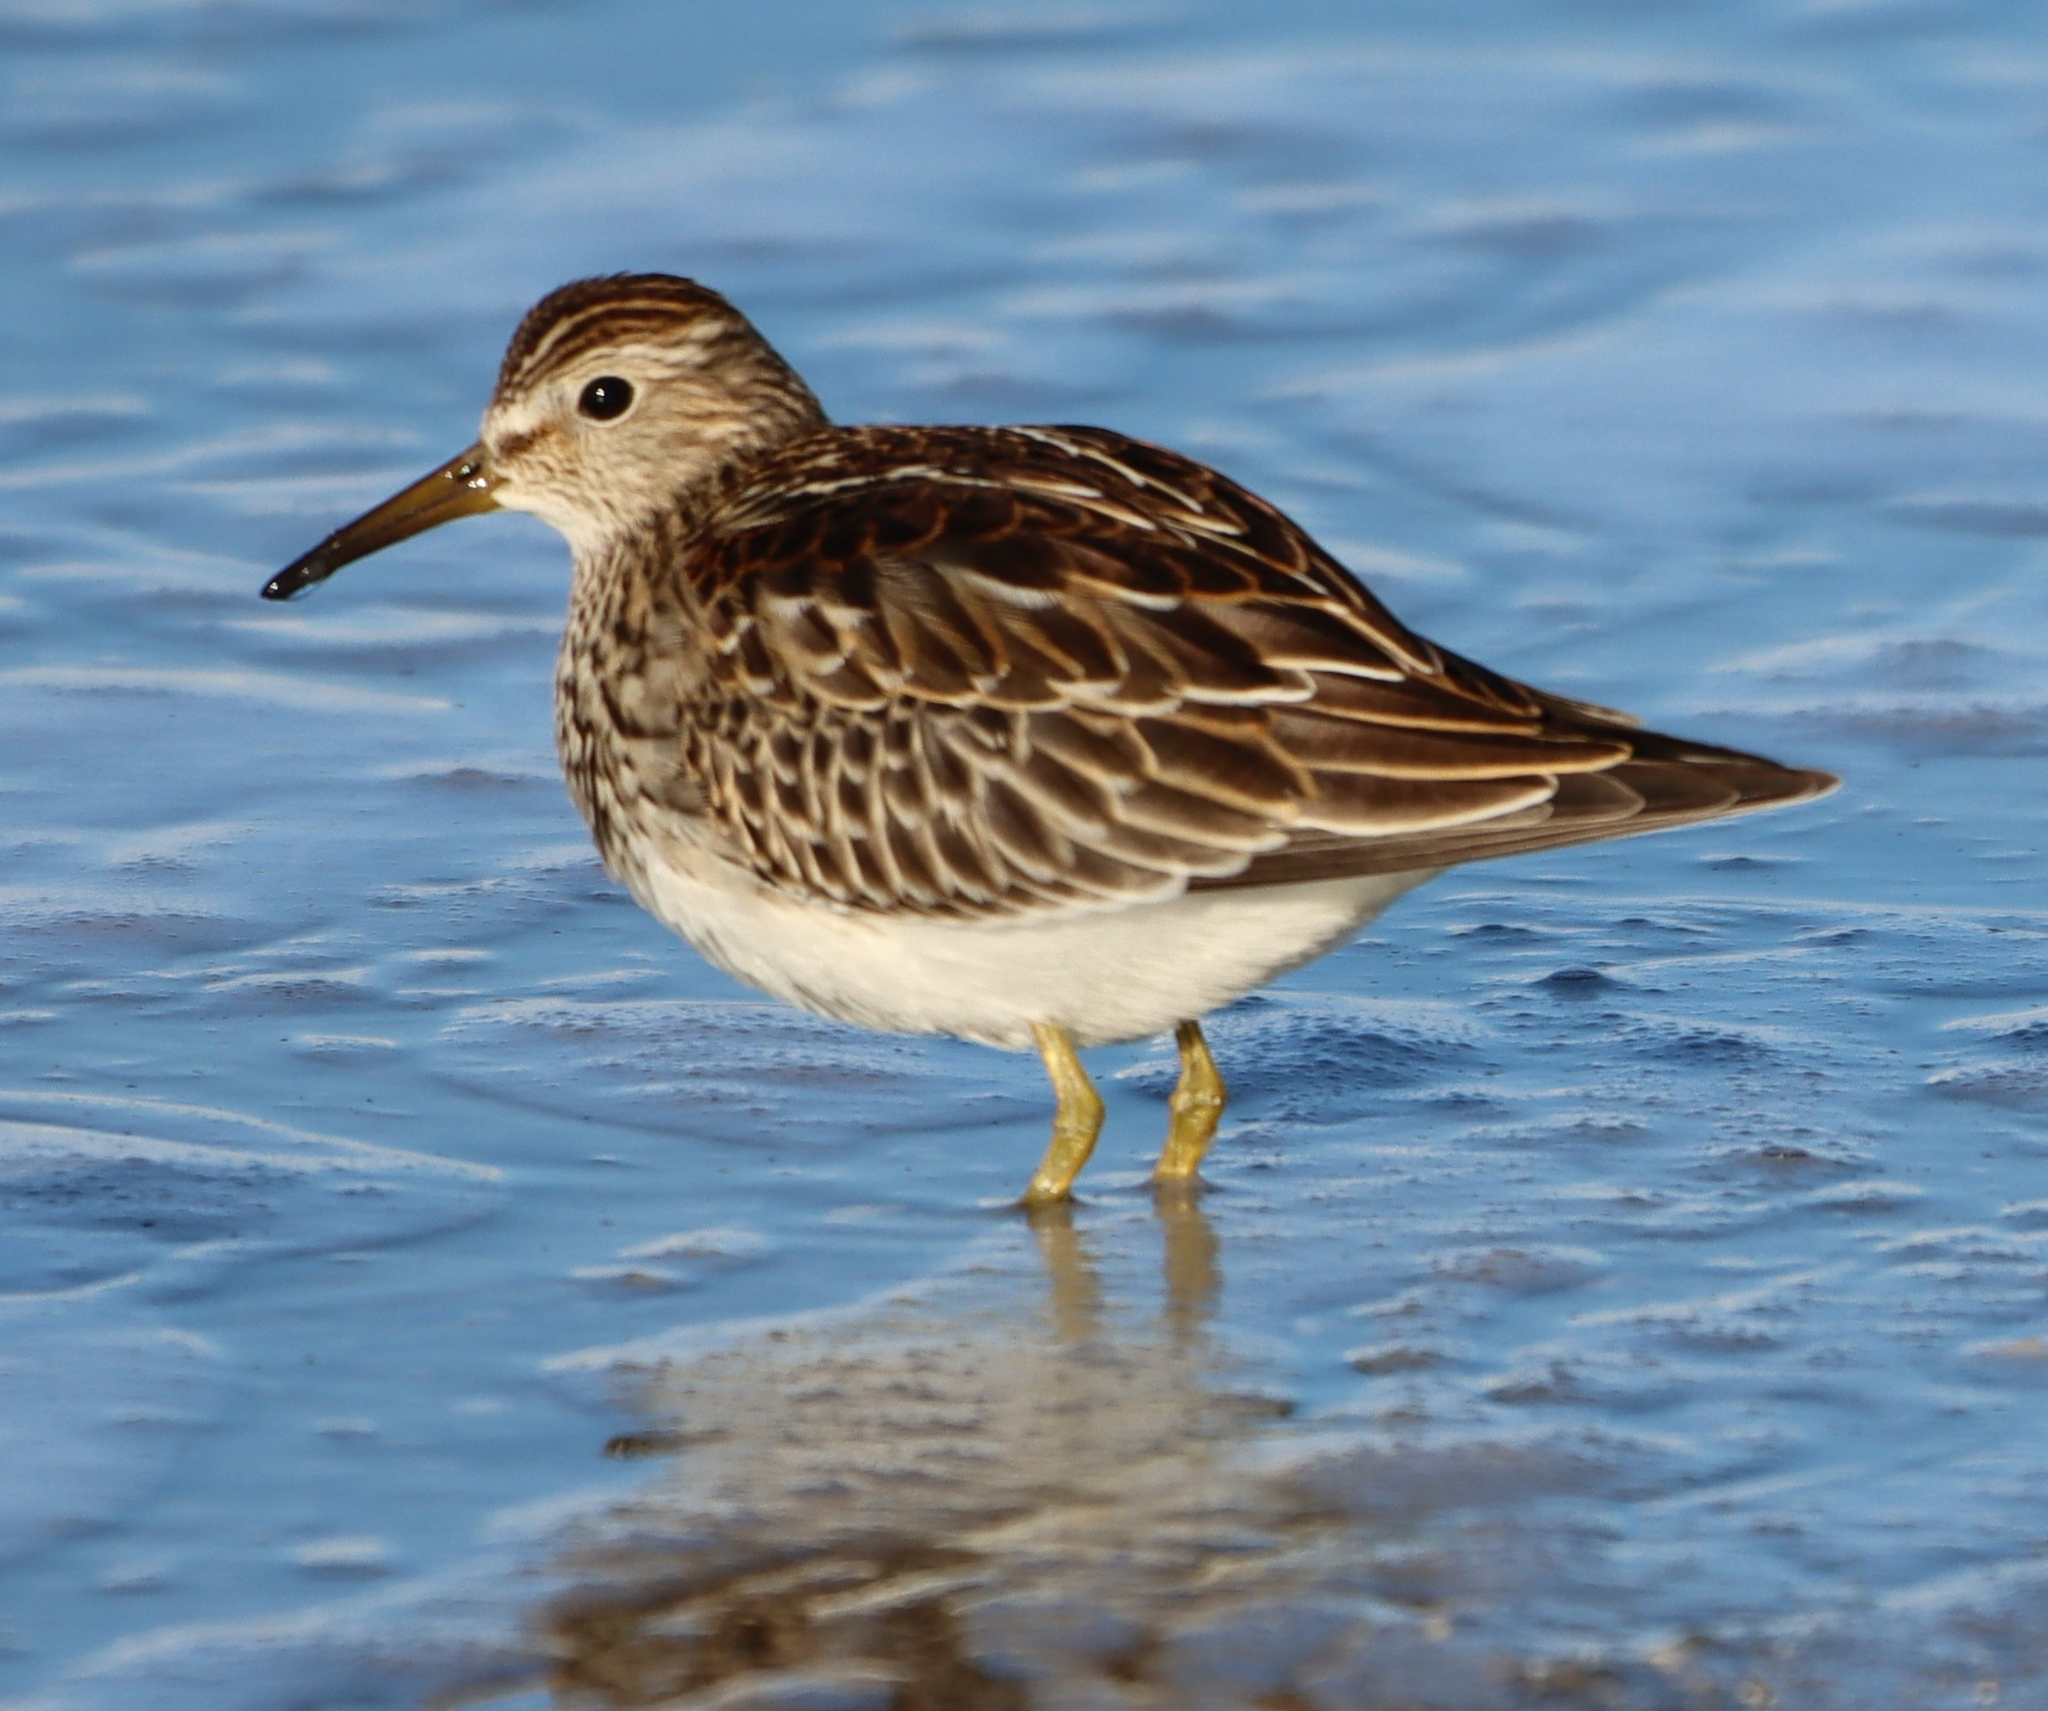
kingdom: Animalia
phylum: Chordata
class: Aves
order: Charadriiformes
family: Scolopacidae
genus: Calidris
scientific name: Calidris melanotos
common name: Pectoral sandpiper
